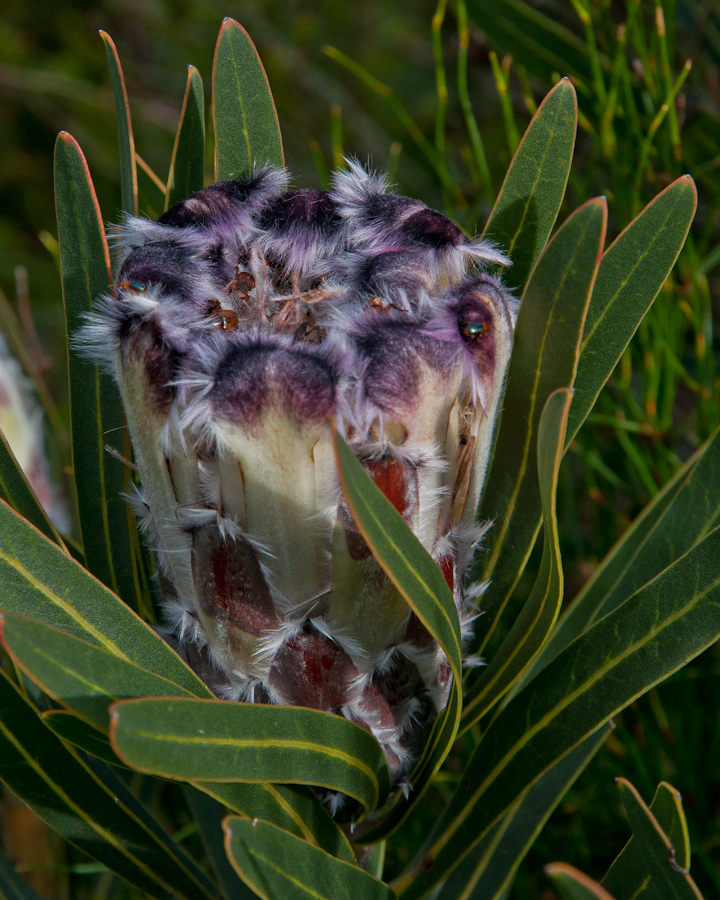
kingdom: Plantae
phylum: Tracheophyta
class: Magnoliopsida
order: Proteales
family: Proteaceae
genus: Protea
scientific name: Protea lepidocarpodendron
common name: Black-bearded protea
